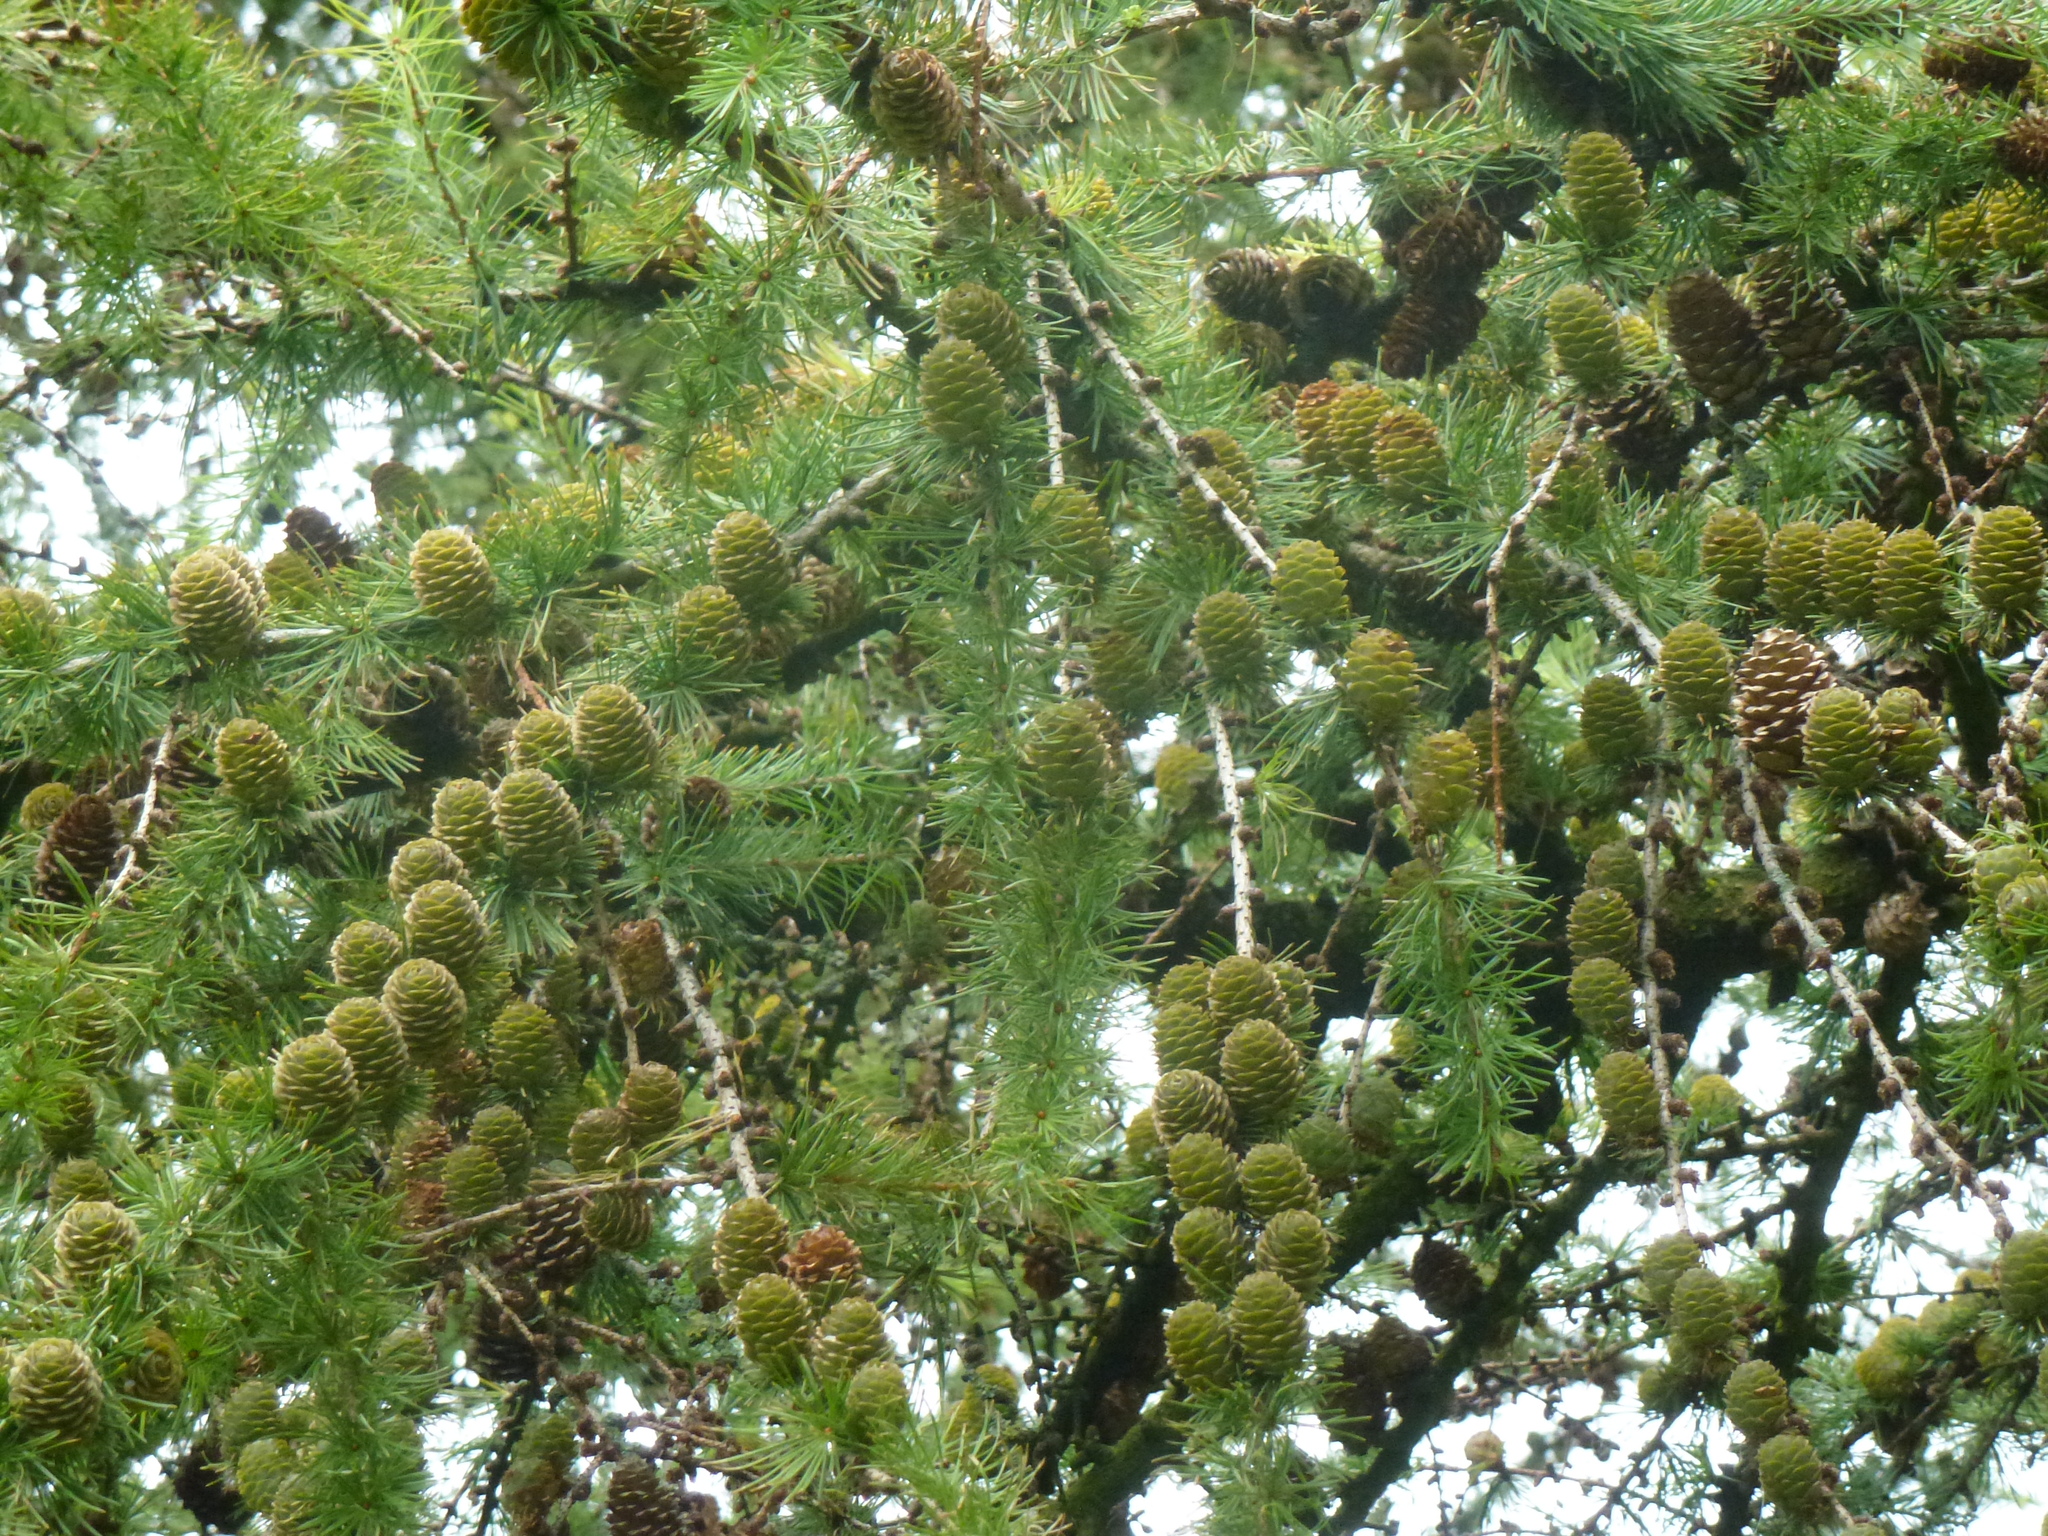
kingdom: Plantae
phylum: Tracheophyta
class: Pinopsida
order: Pinales
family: Pinaceae
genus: Larix
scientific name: Larix decidua
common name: European larch
